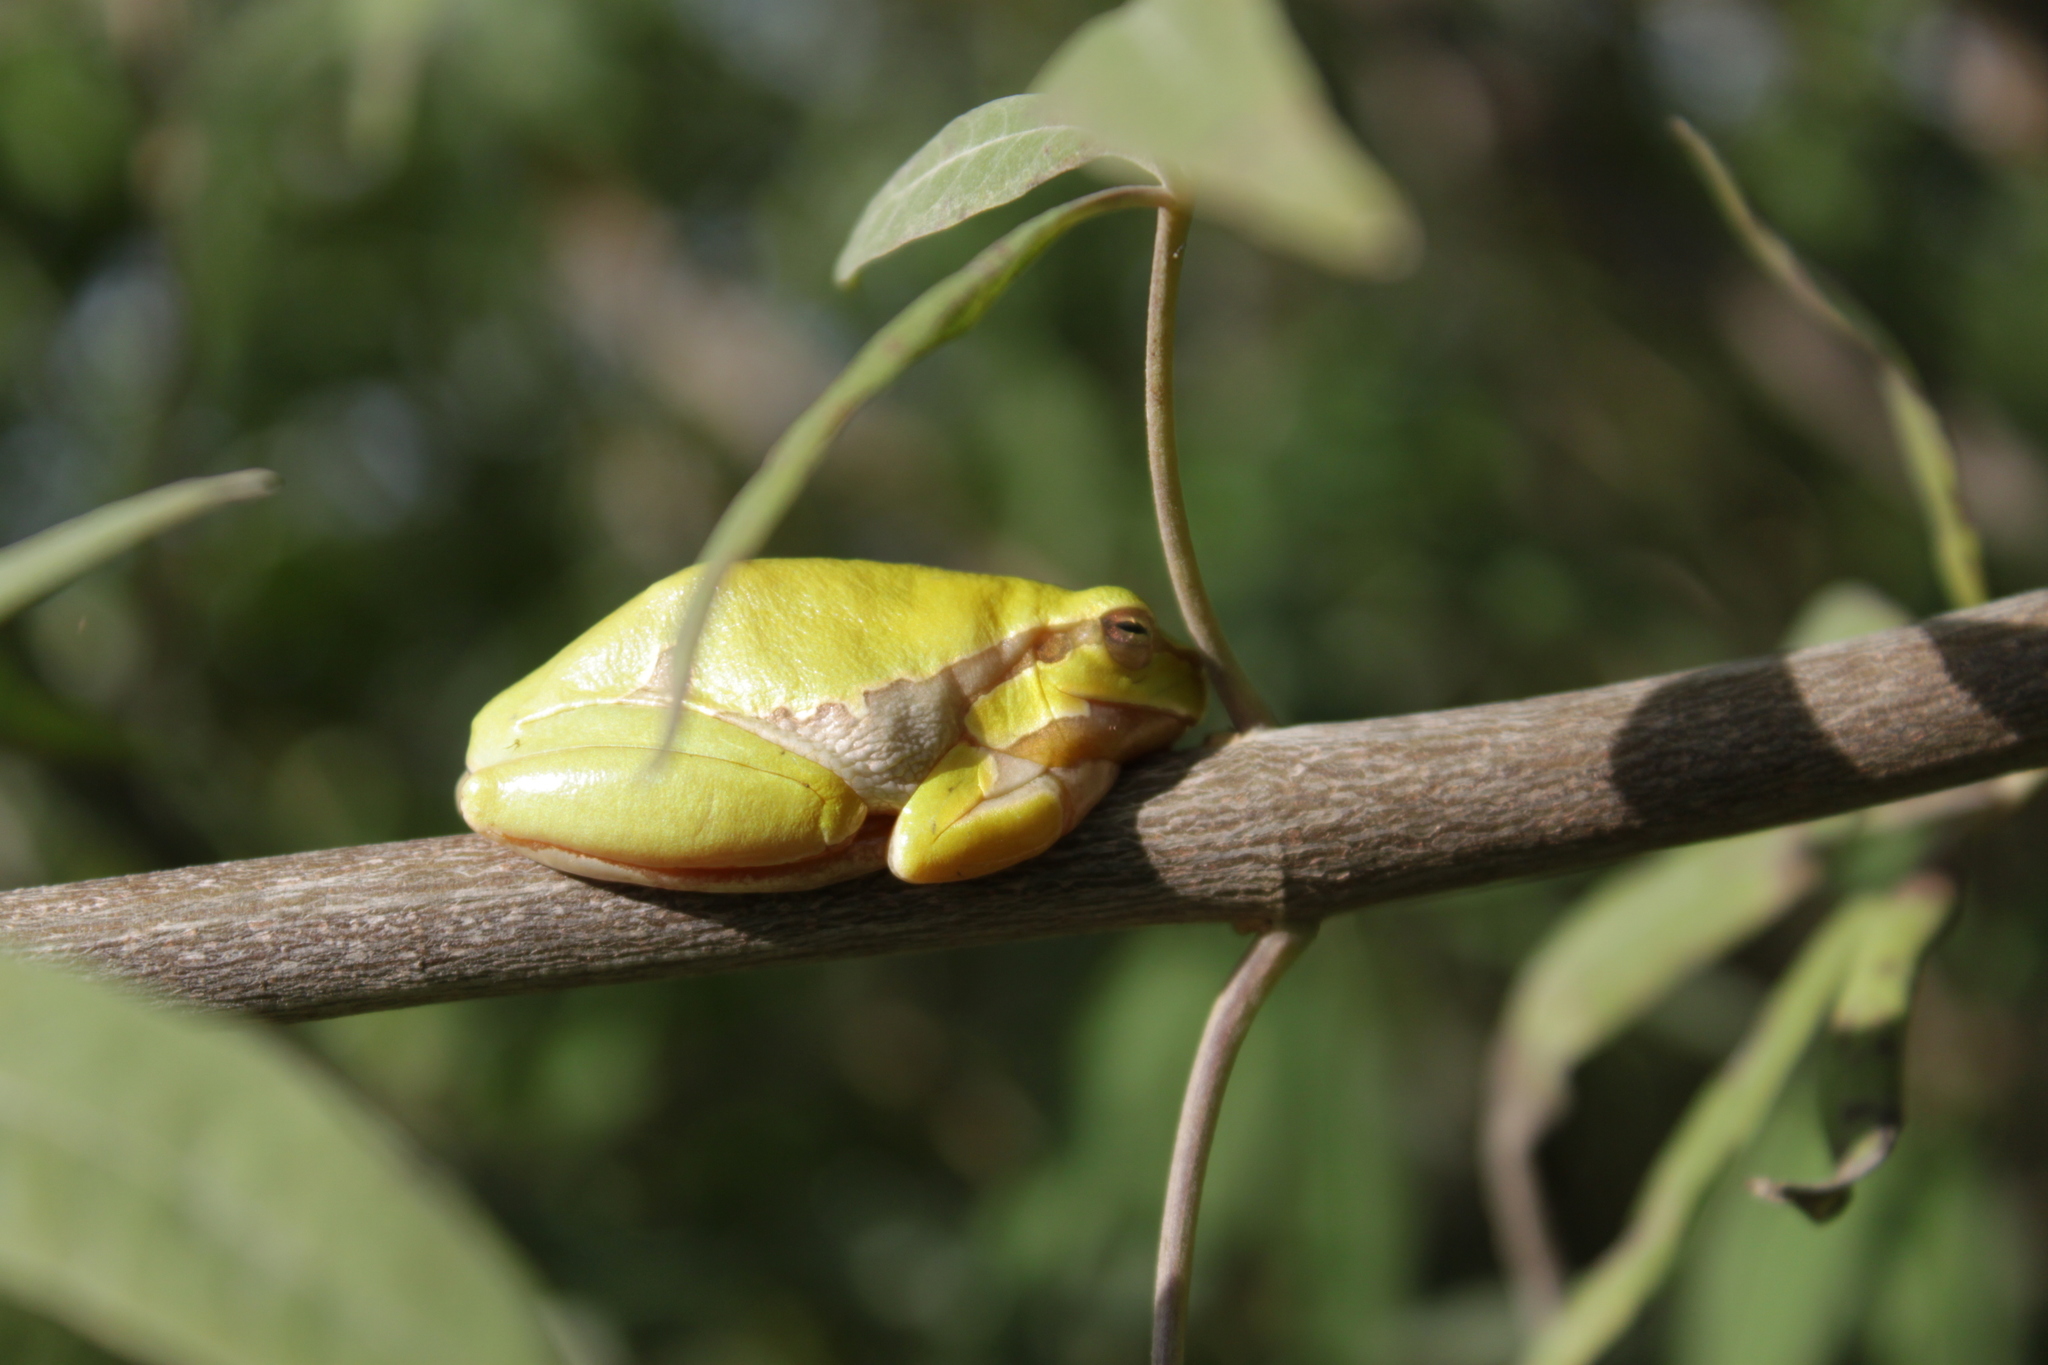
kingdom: Animalia
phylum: Chordata
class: Amphibia
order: Anura
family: Hylidae
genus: Hyla
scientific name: Hyla arborea
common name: Common tree frog
